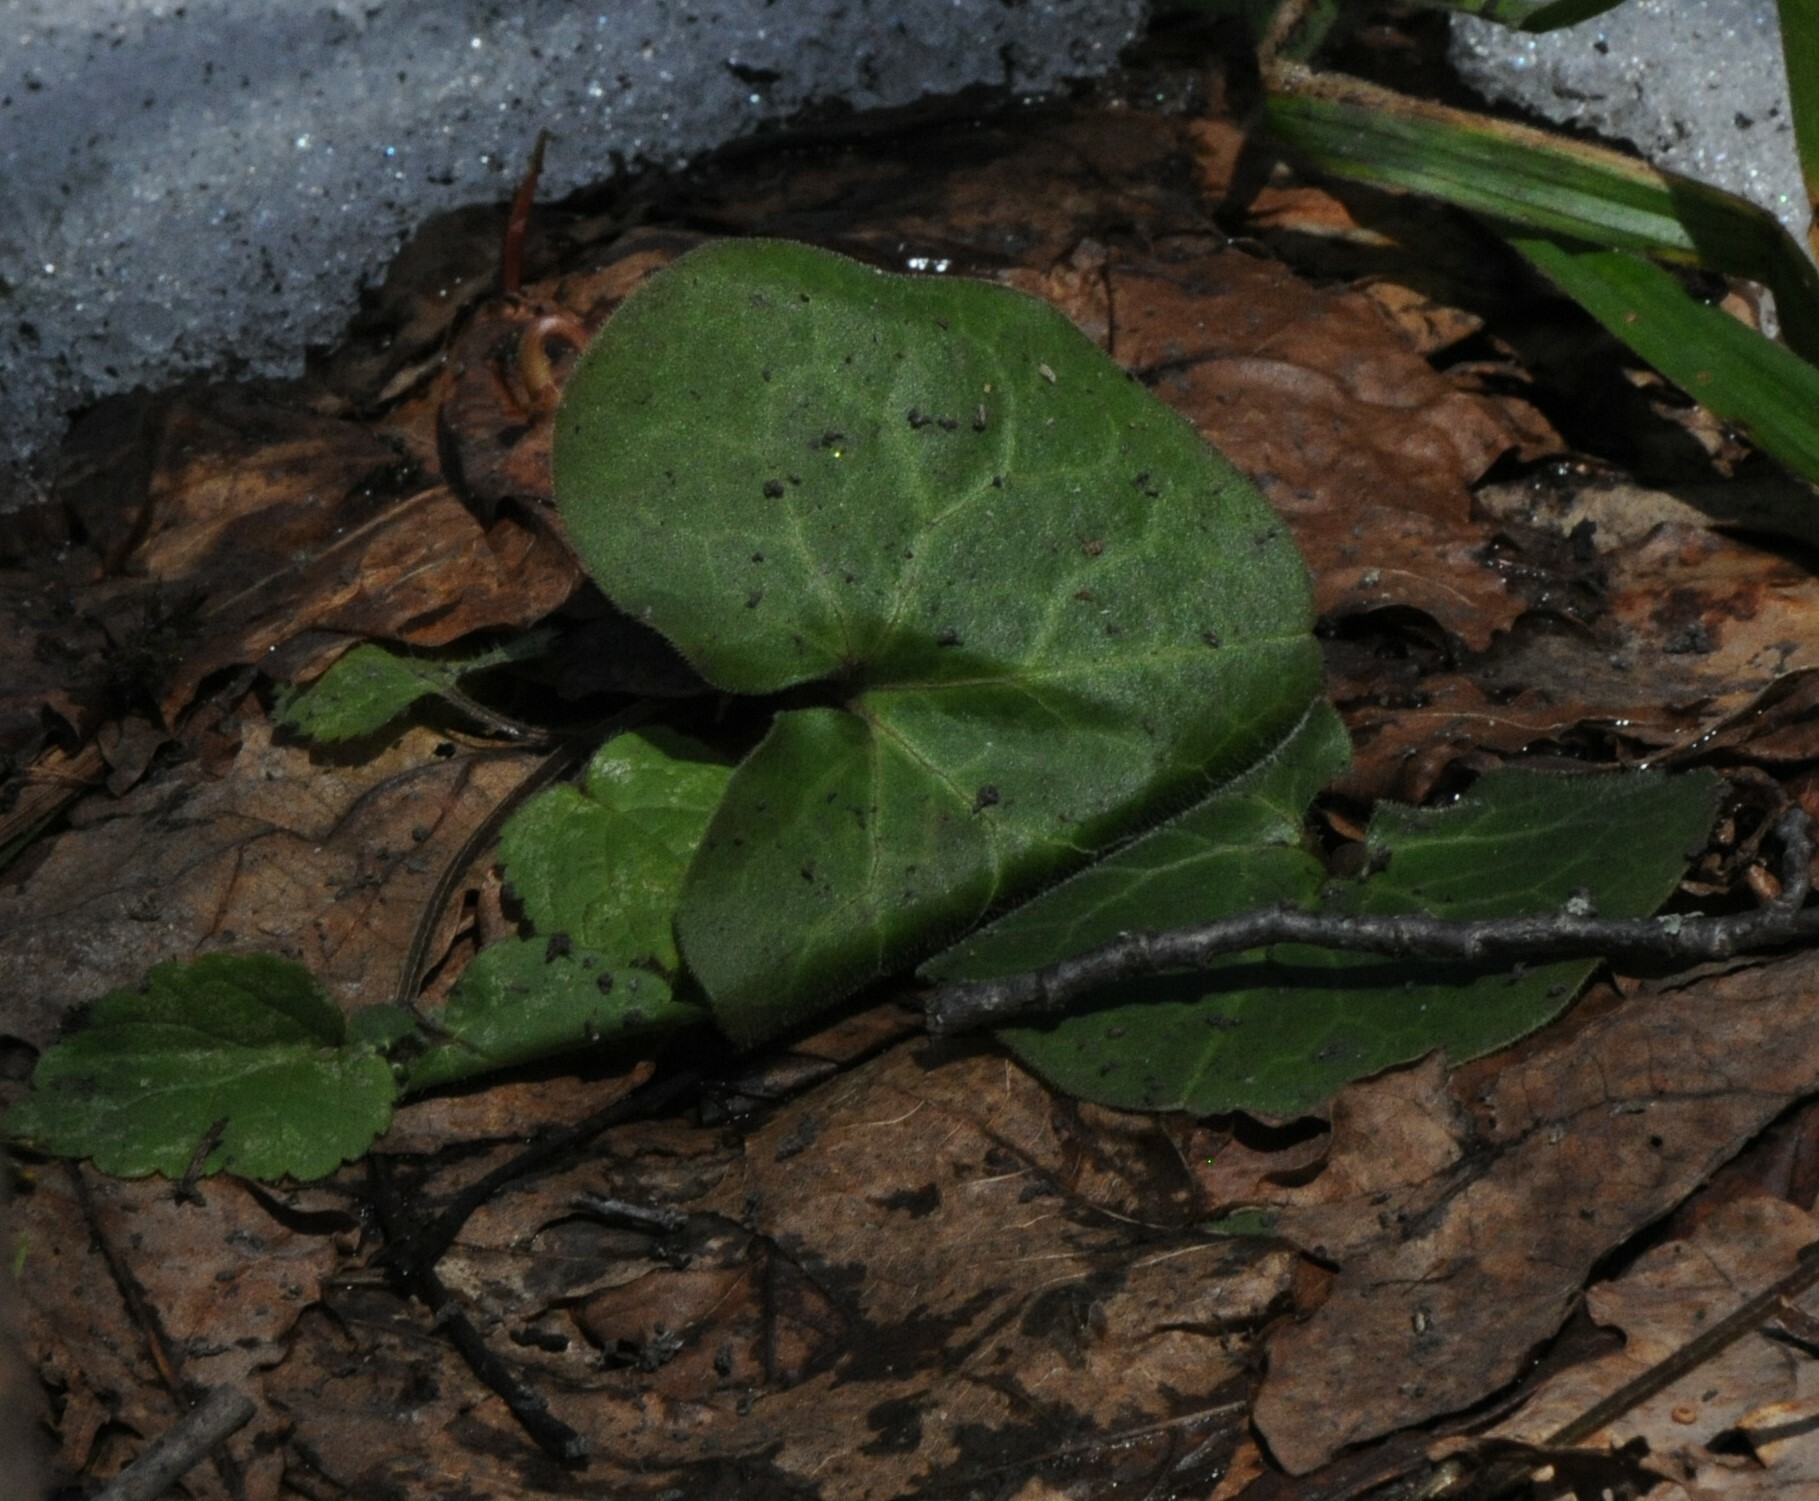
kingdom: Plantae
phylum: Tracheophyta
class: Magnoliopsida
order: Piperales
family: Aristolochiaceae
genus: Asarum
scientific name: Asarum europaeum
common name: Asarabacca
